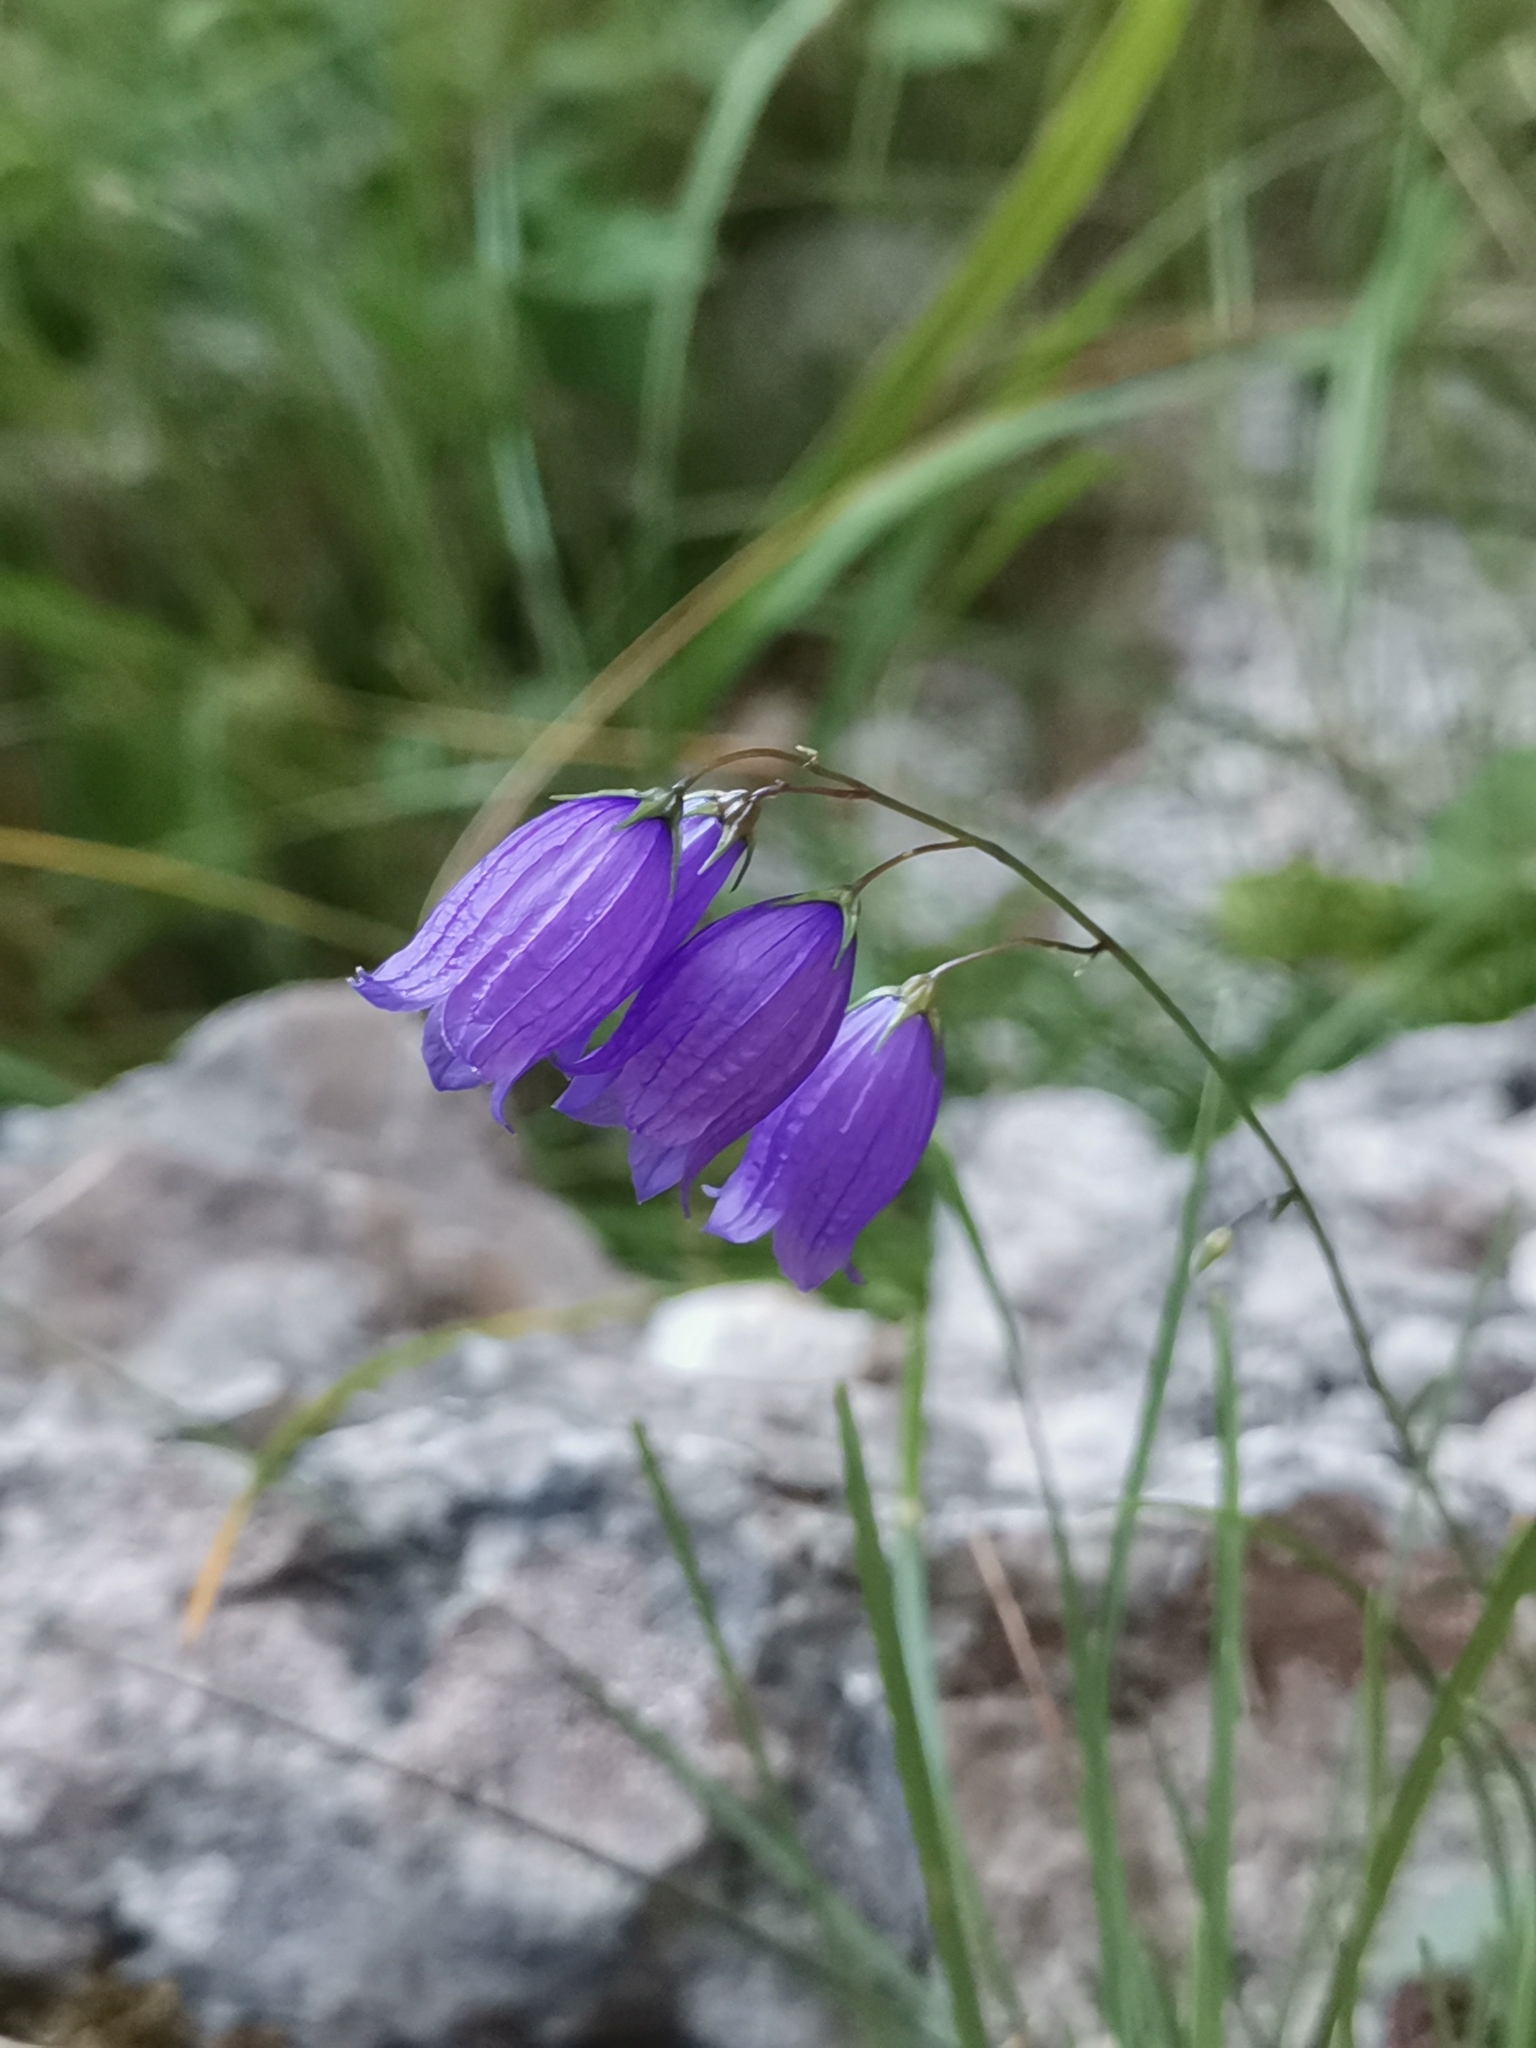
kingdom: Plantae
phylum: Tracheophyta
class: Magnoliopsida
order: Asterales
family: Campanulaceae
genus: Campanula
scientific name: Campanula cespitosa
